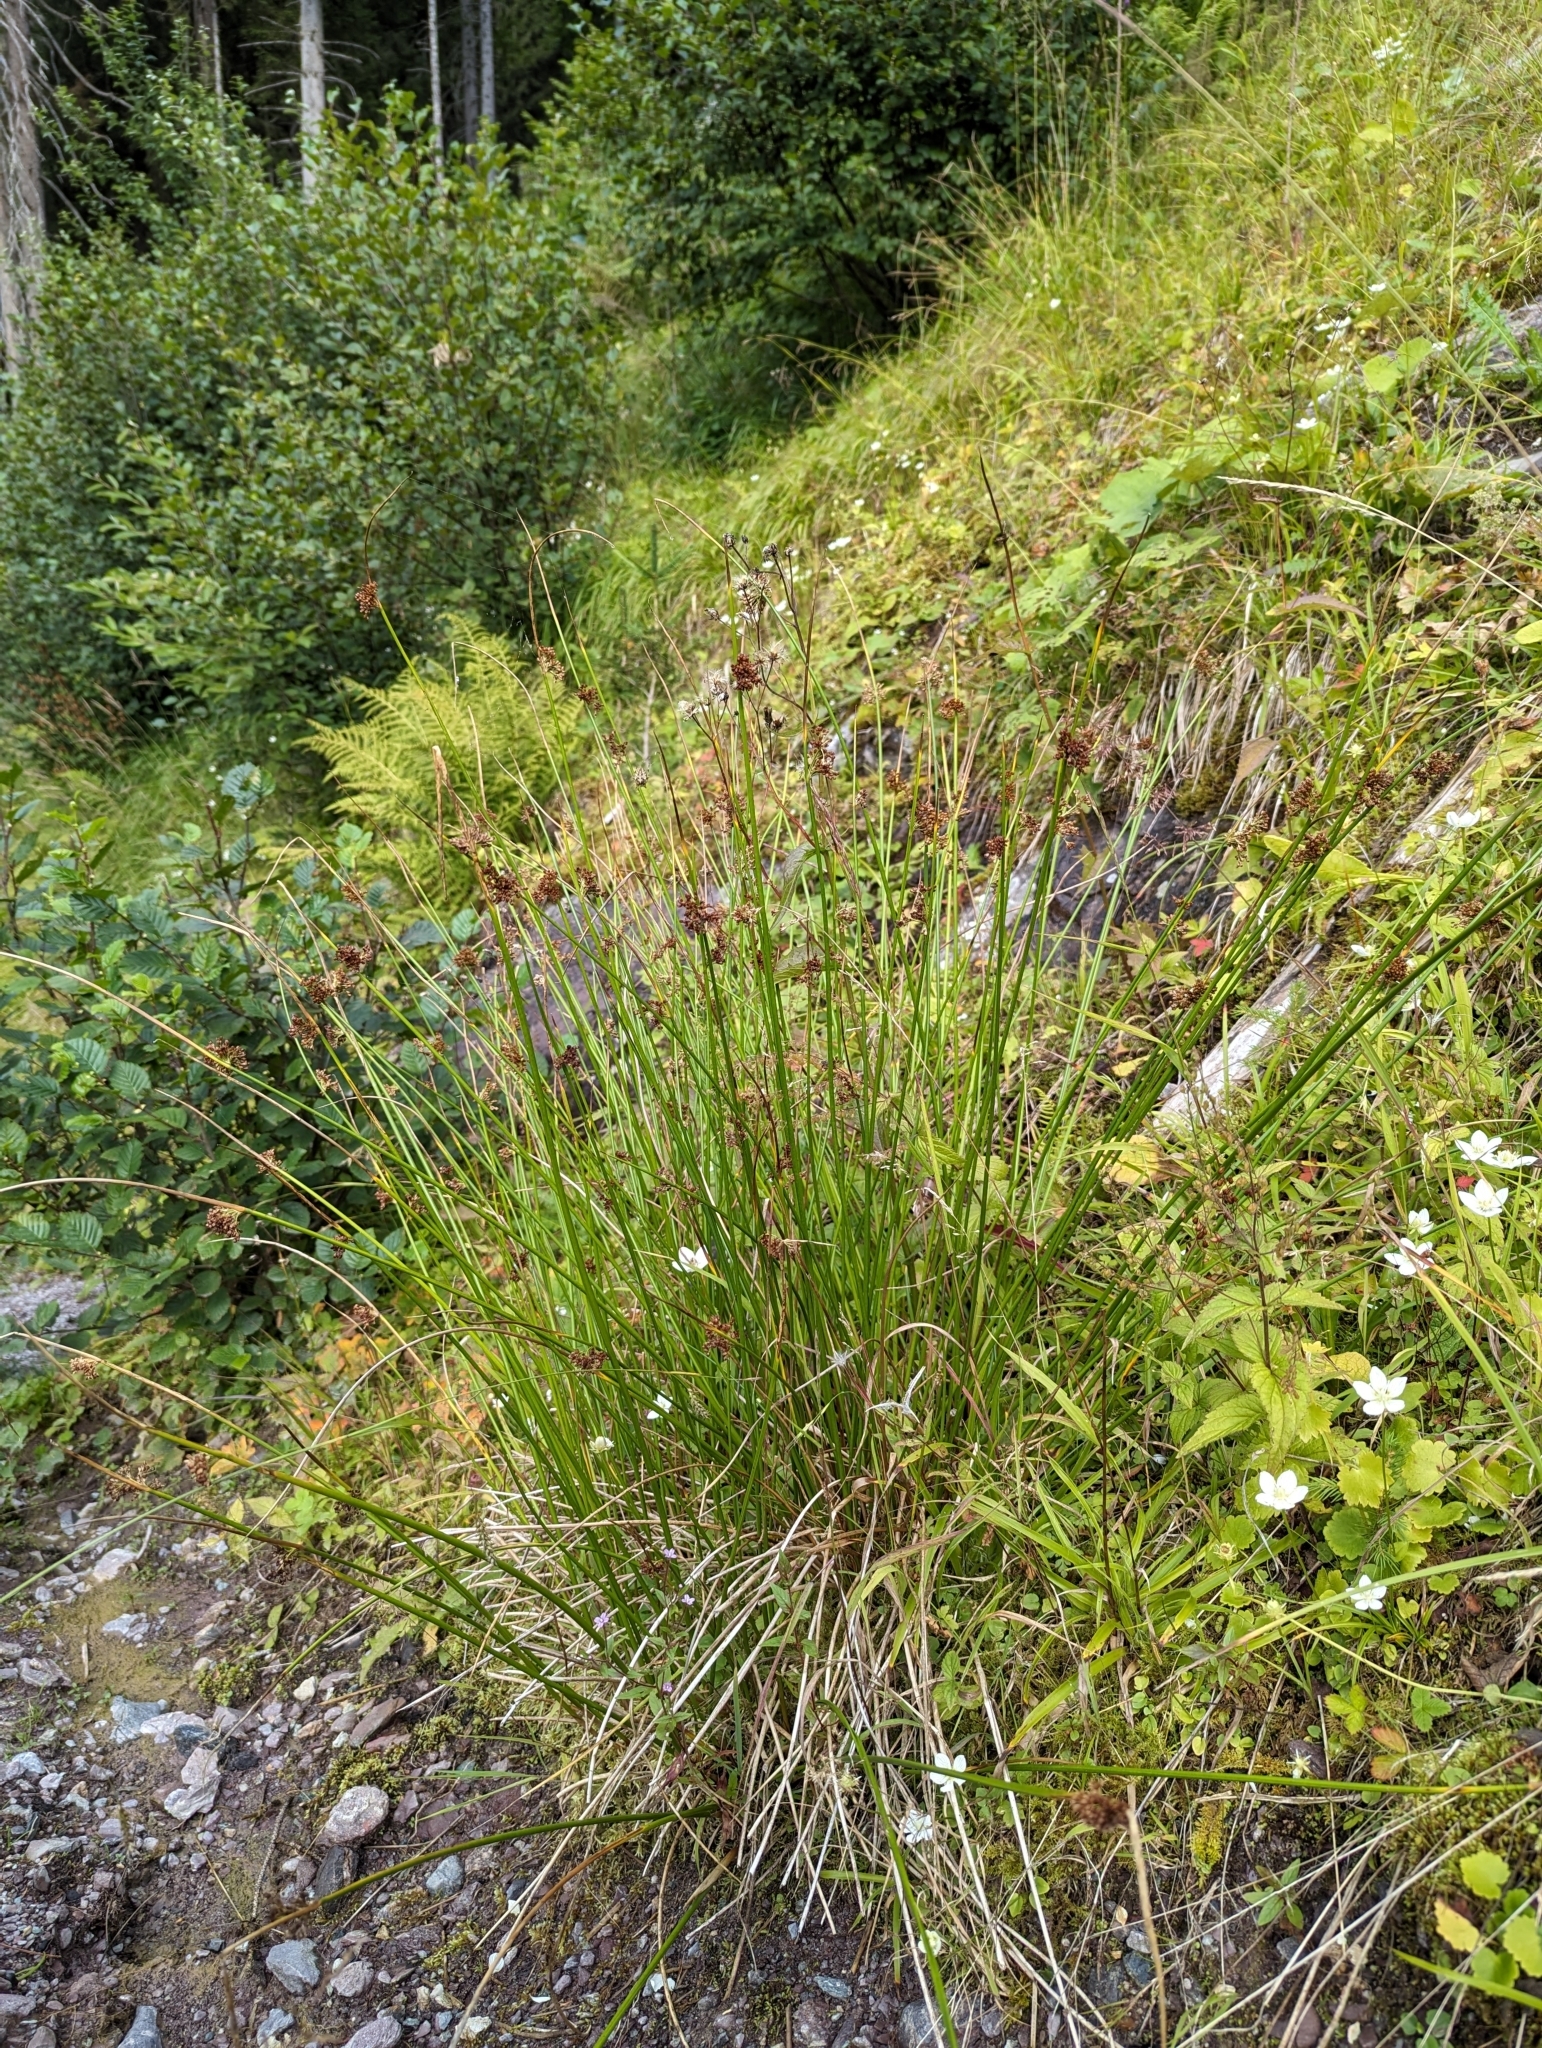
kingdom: Plantae
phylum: Tracheophyta
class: Liliopsida
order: Poales
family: Juncaceae
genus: Juncus
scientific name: Juncus effusus
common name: Soft rush
